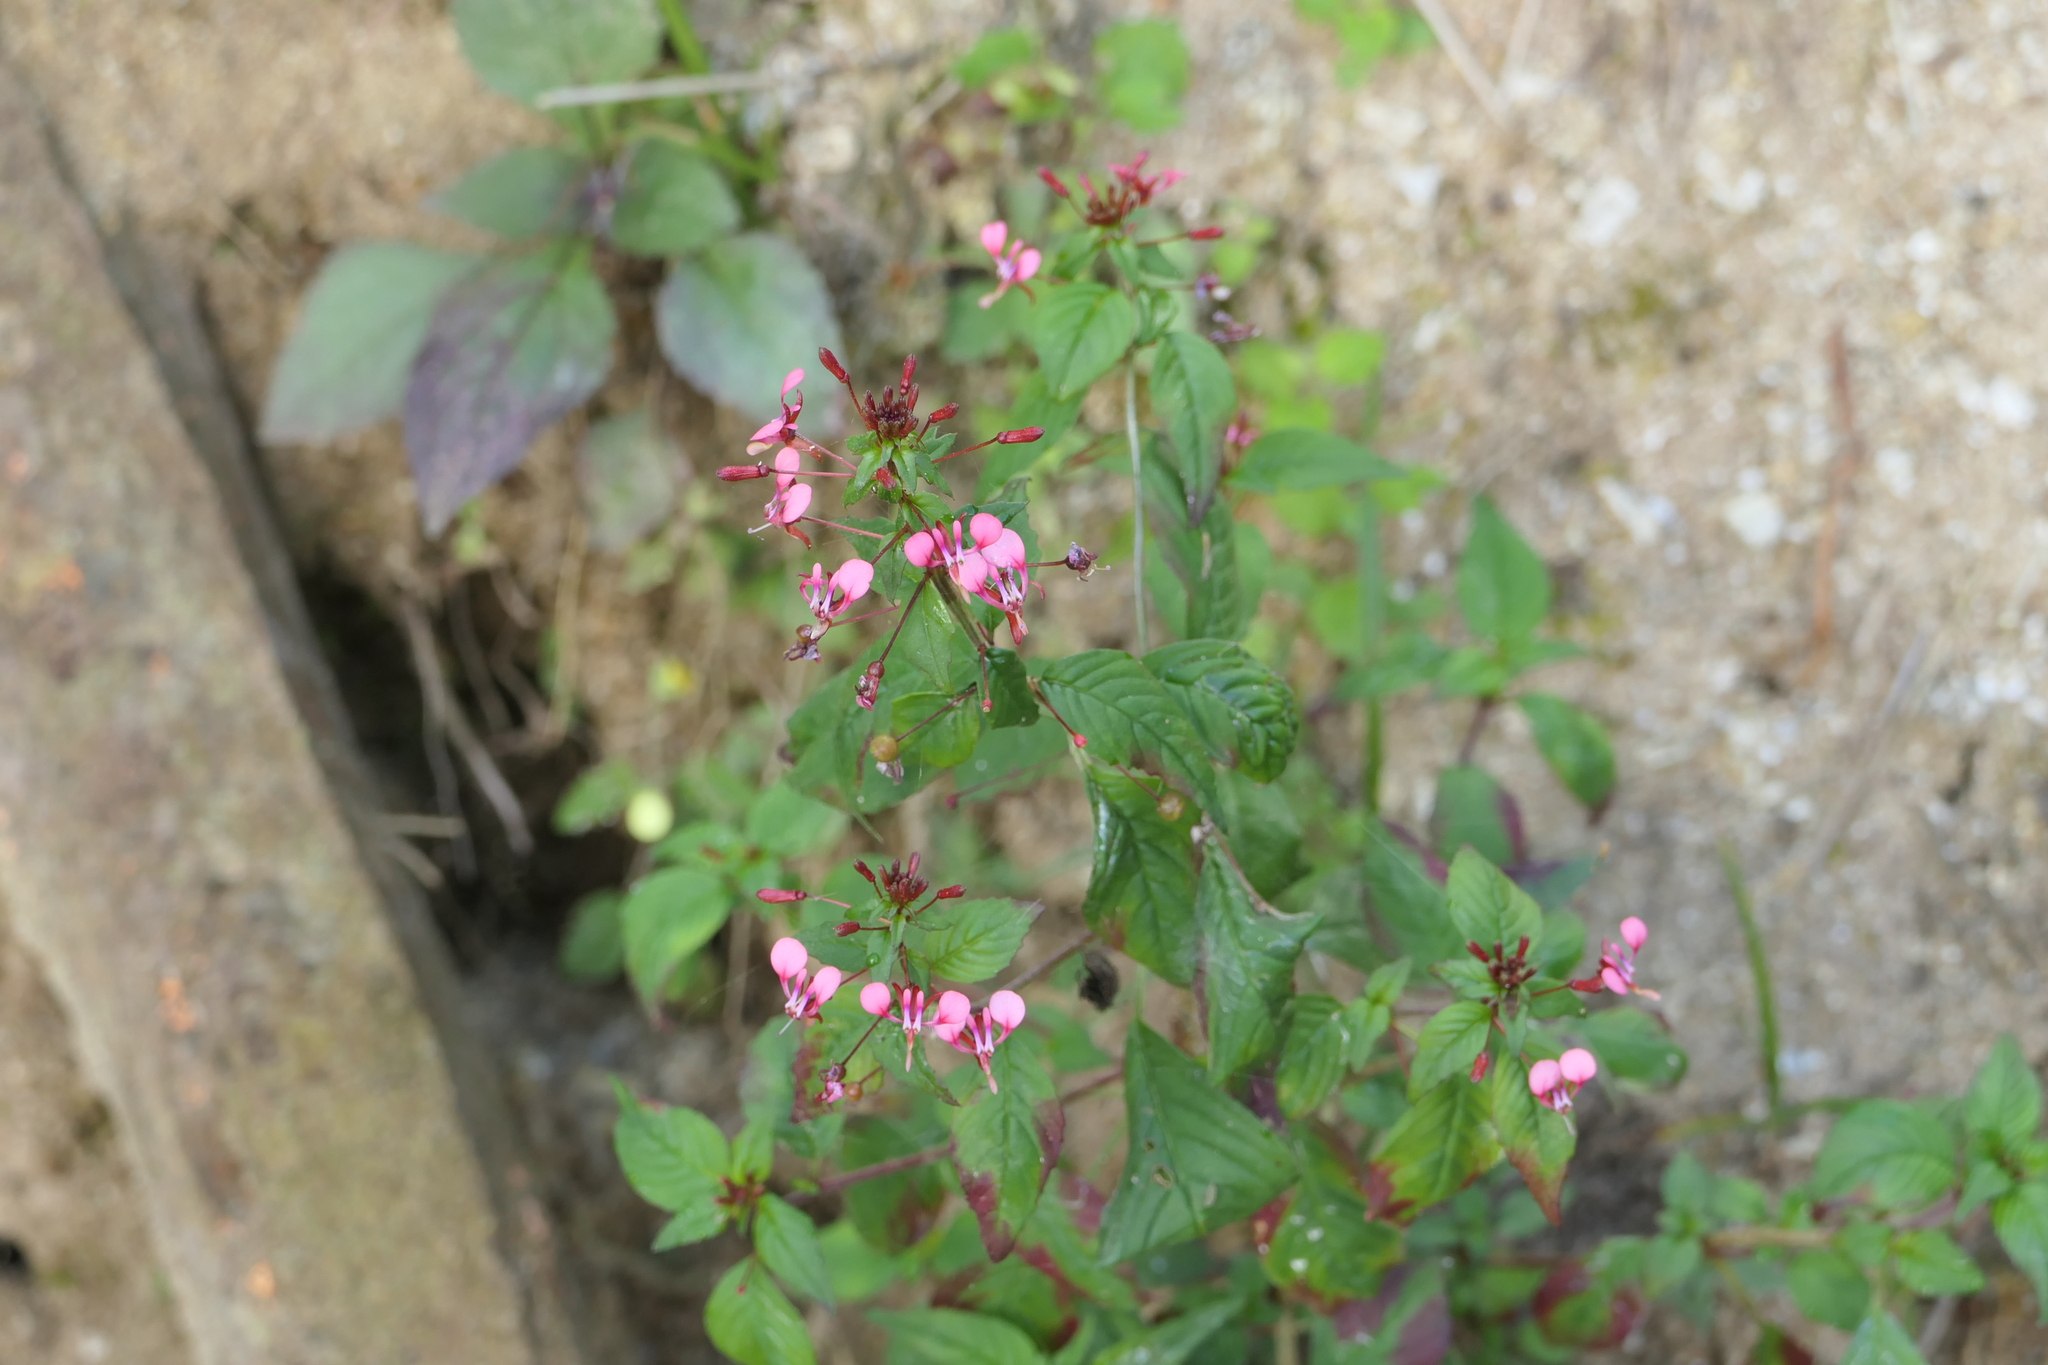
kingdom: Plantae
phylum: Tracheophyta
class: Magnoliopsida
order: Myrtales
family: Onagraceae
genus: Lopezia
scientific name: Lopezia racemosa
